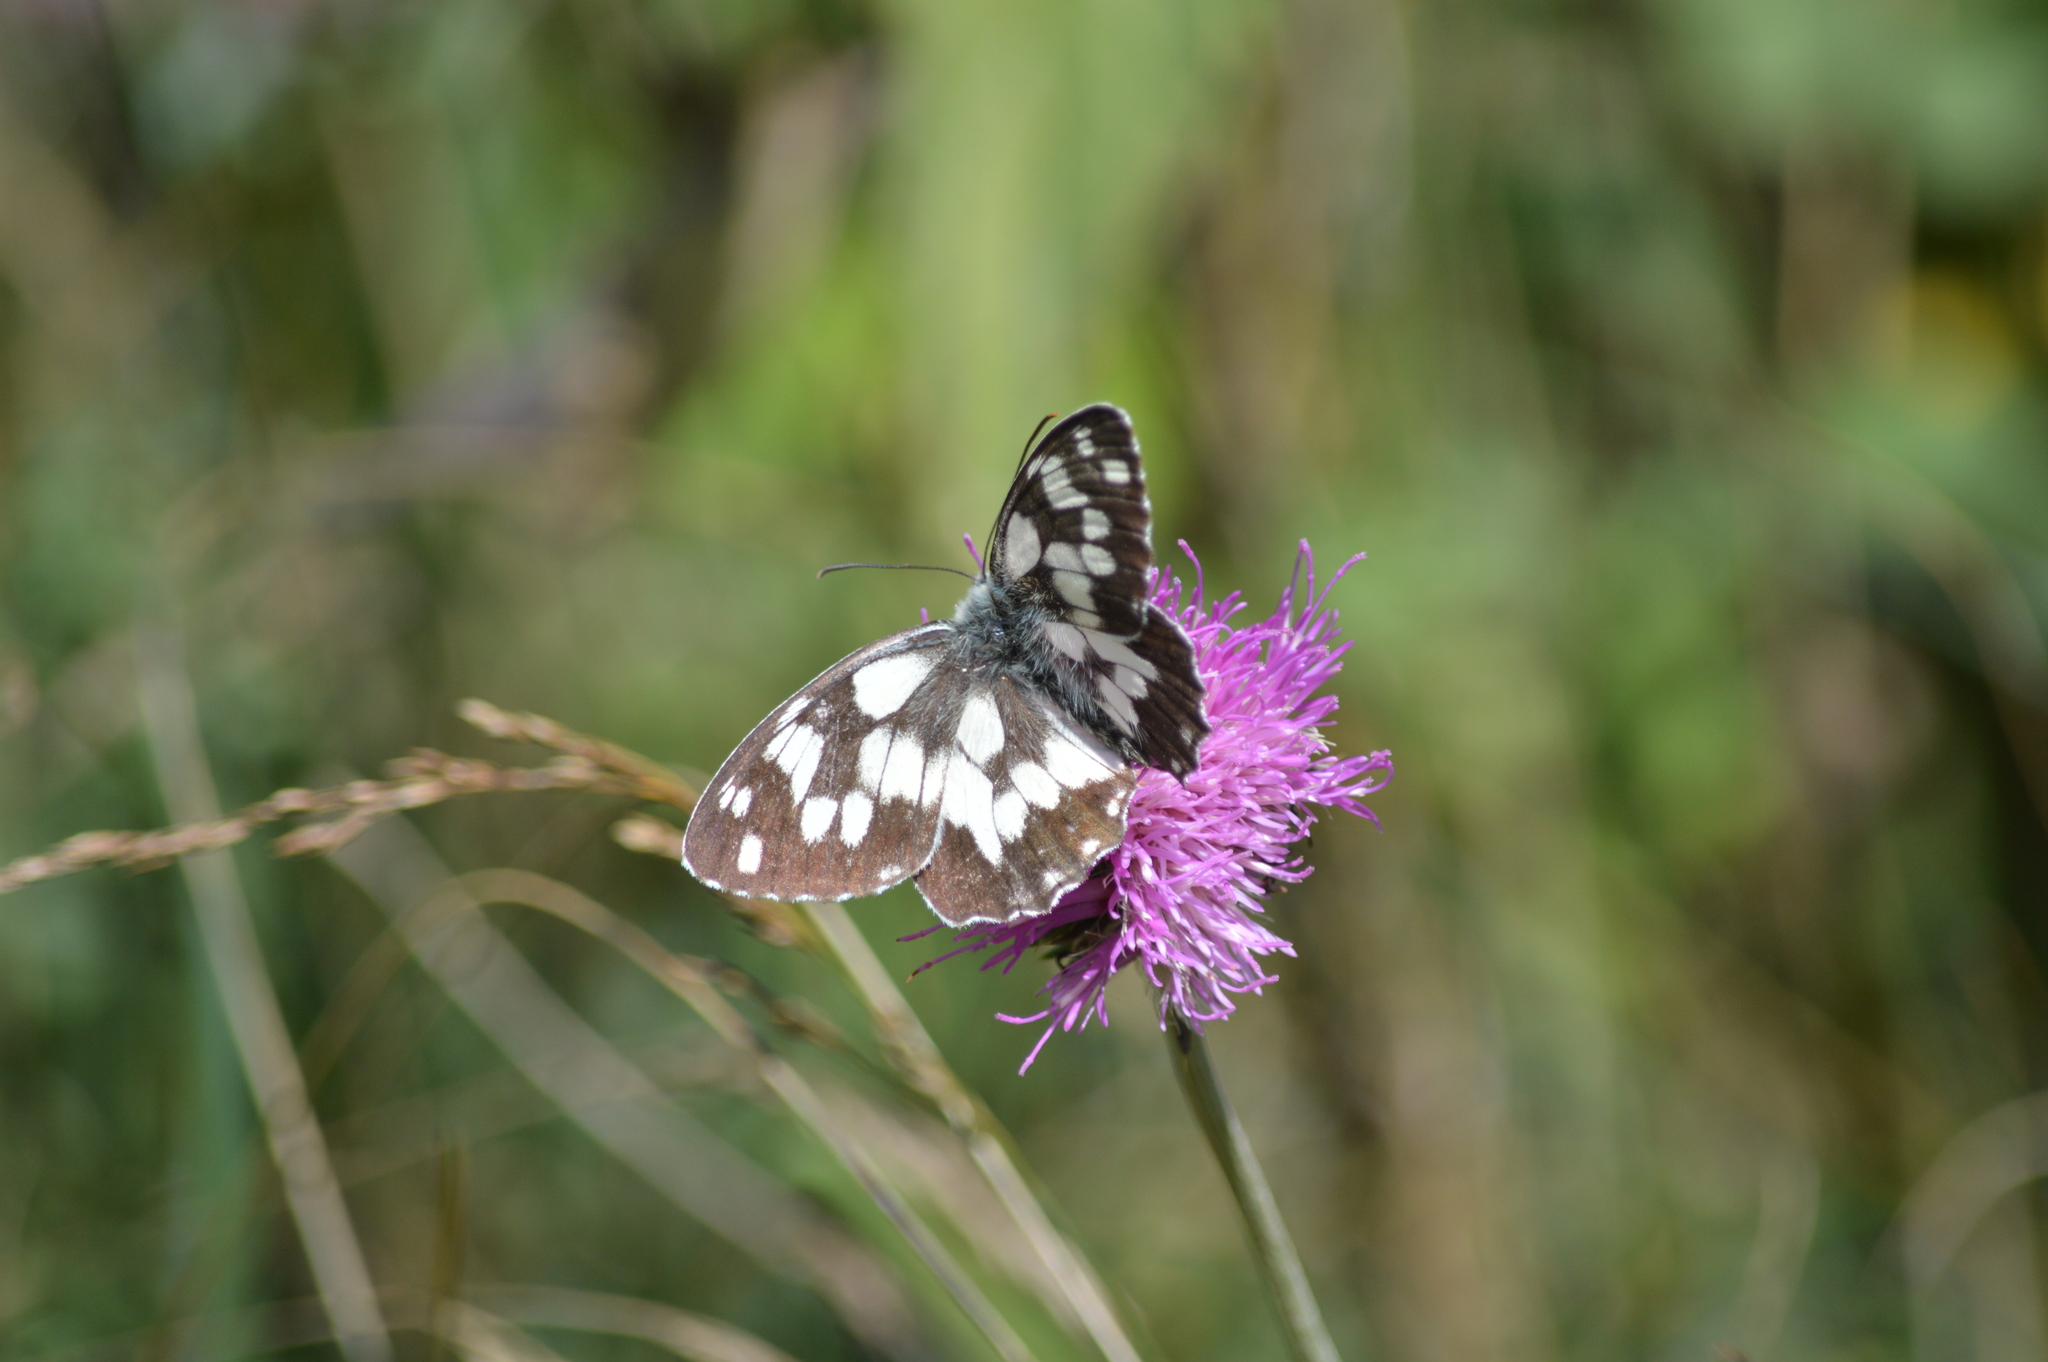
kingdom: Animalia
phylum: Arthropoda
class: Insecta
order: Lepidoptera
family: Nymphalidae
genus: Melanargia
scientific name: Melanargia galathea
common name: Marbled white
